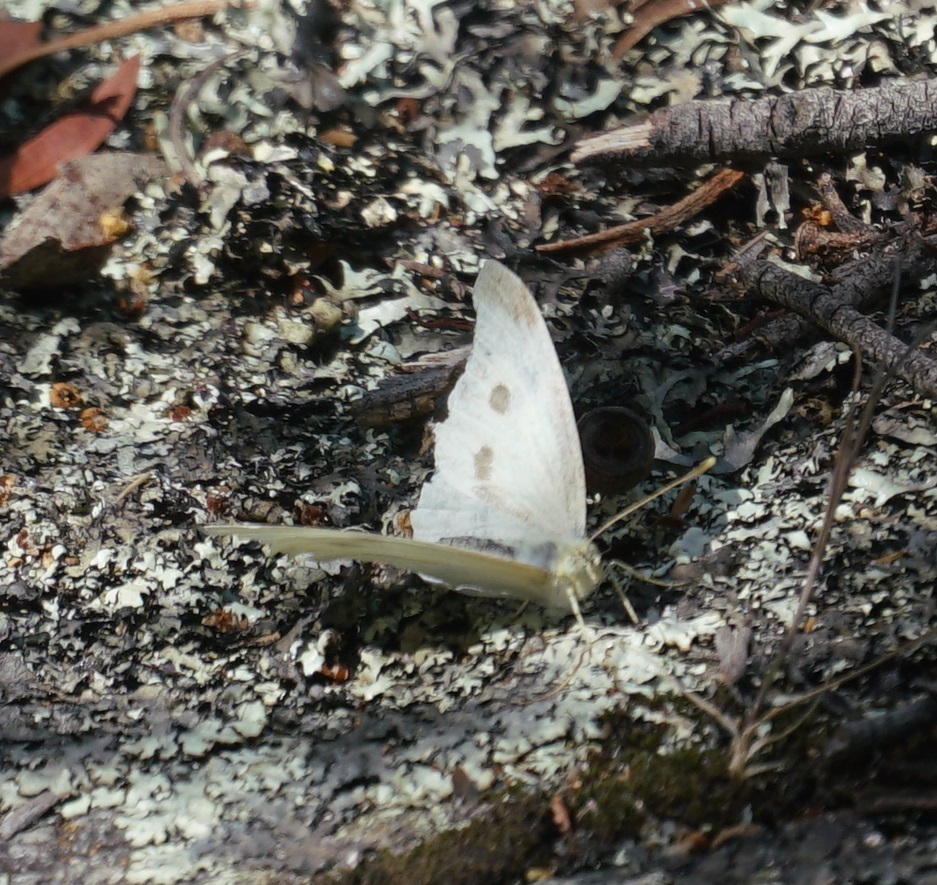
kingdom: Animalia
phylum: Arthropoda
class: Insecta
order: Lepidoptera
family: Pieridae
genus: Pieris
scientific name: Pieris rapae
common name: Small white
